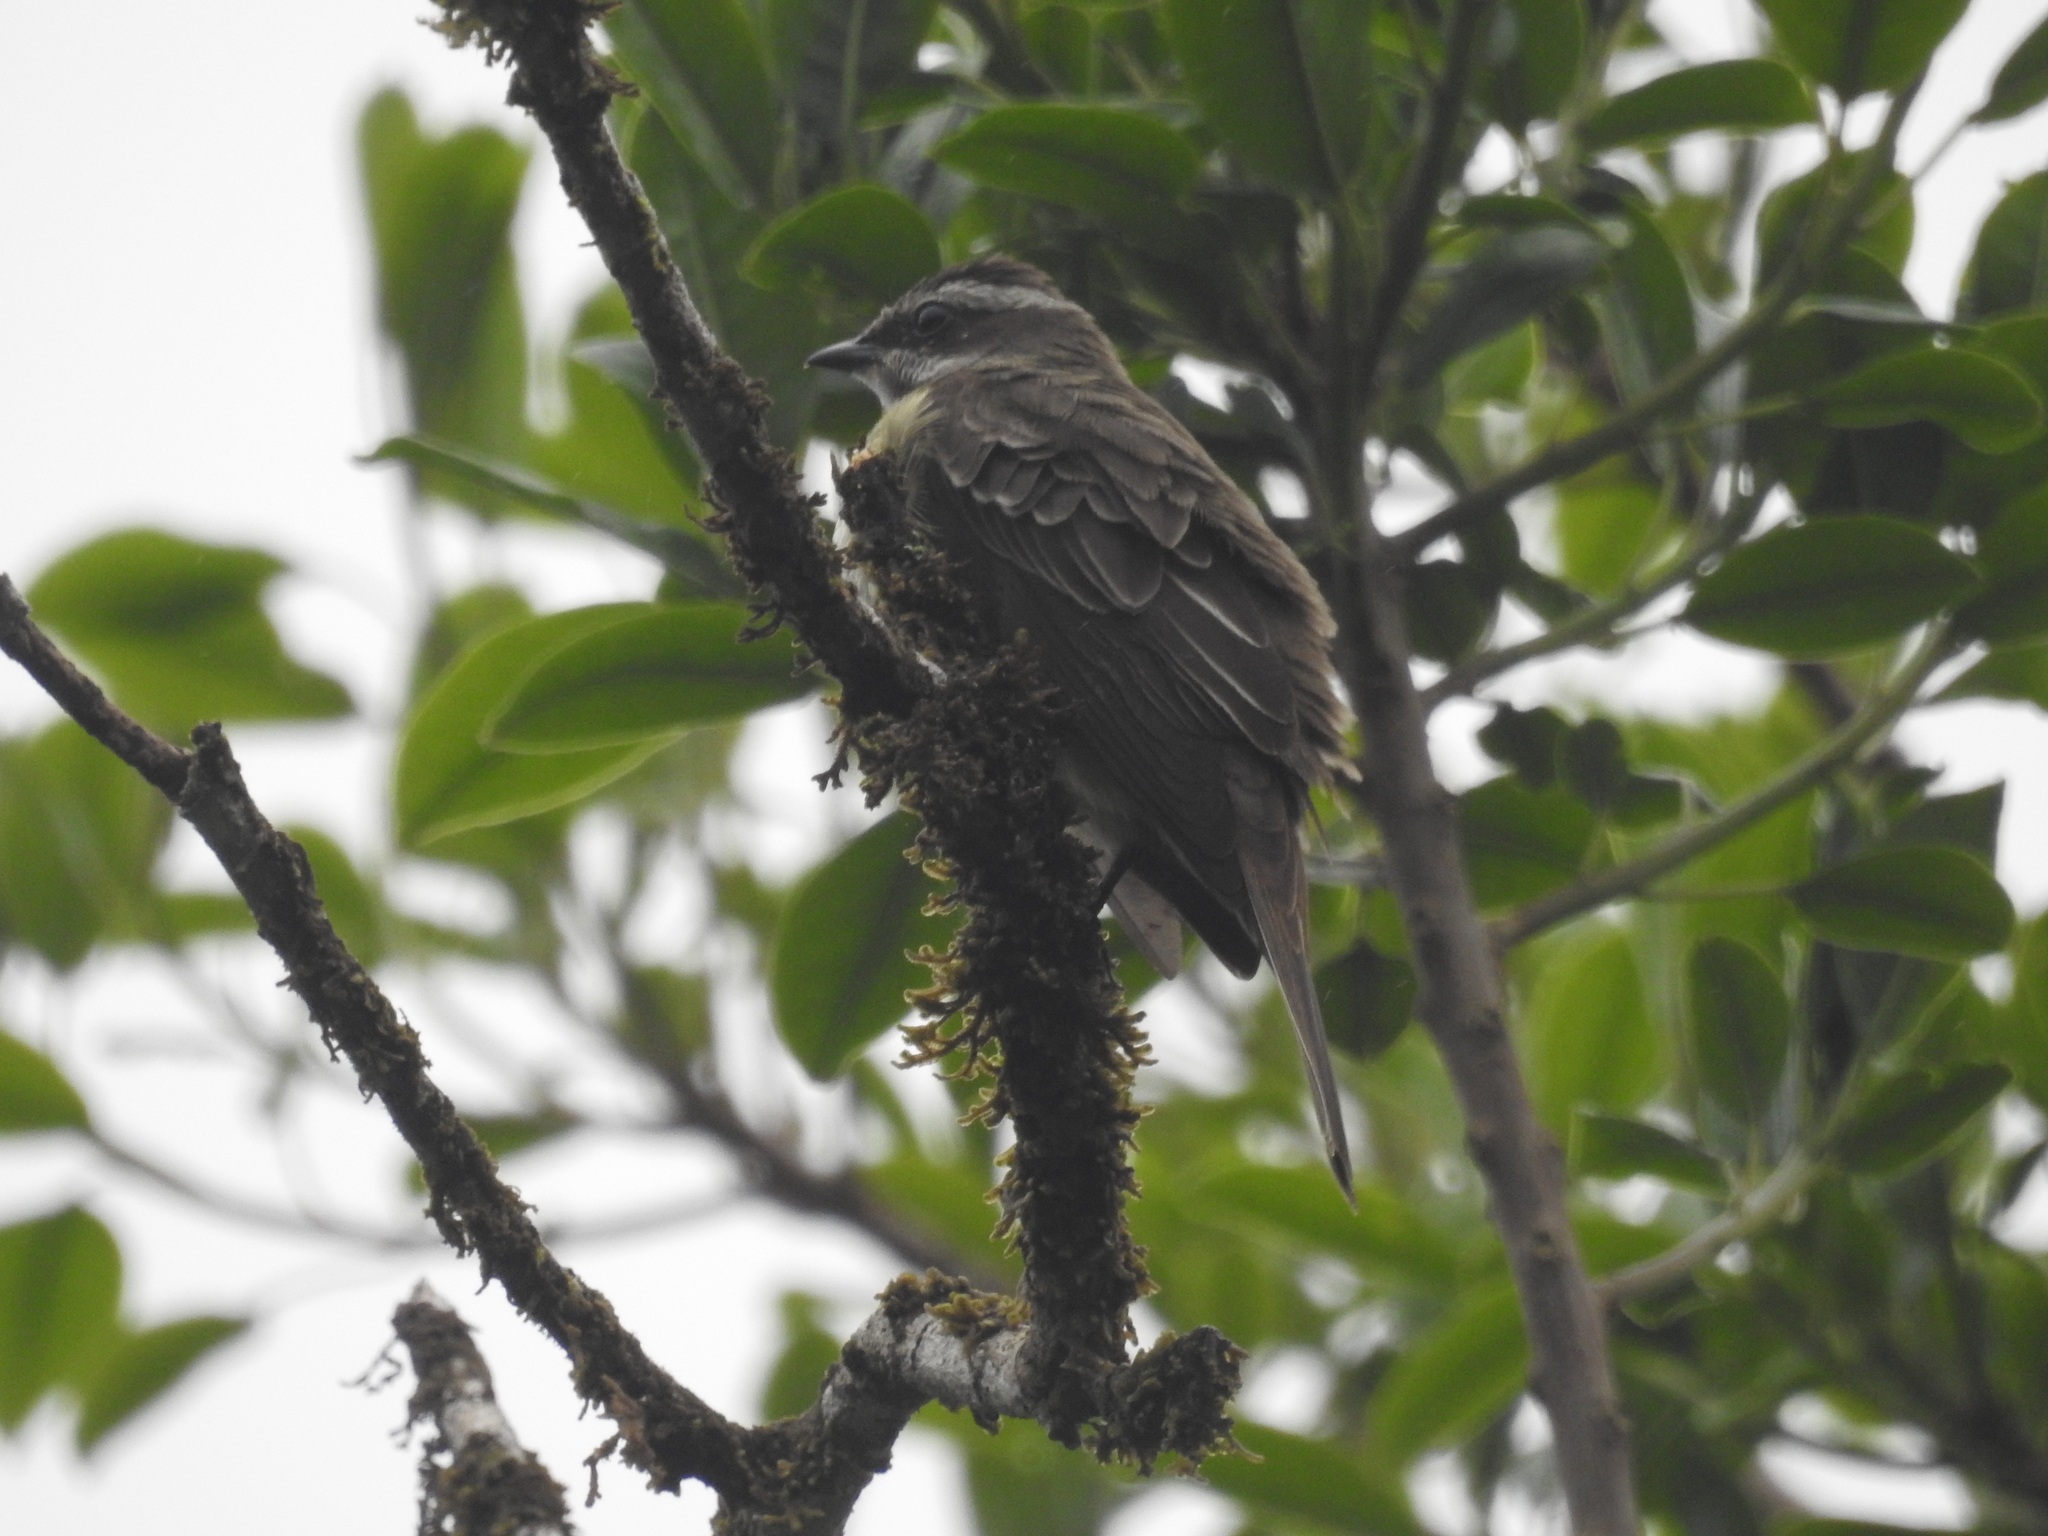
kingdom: Animalia
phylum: Chordata
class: Aves
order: Passeriformes
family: Tyrannidae
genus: Legatus
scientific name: Legatus leucophaius
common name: Piratic flycatcher
